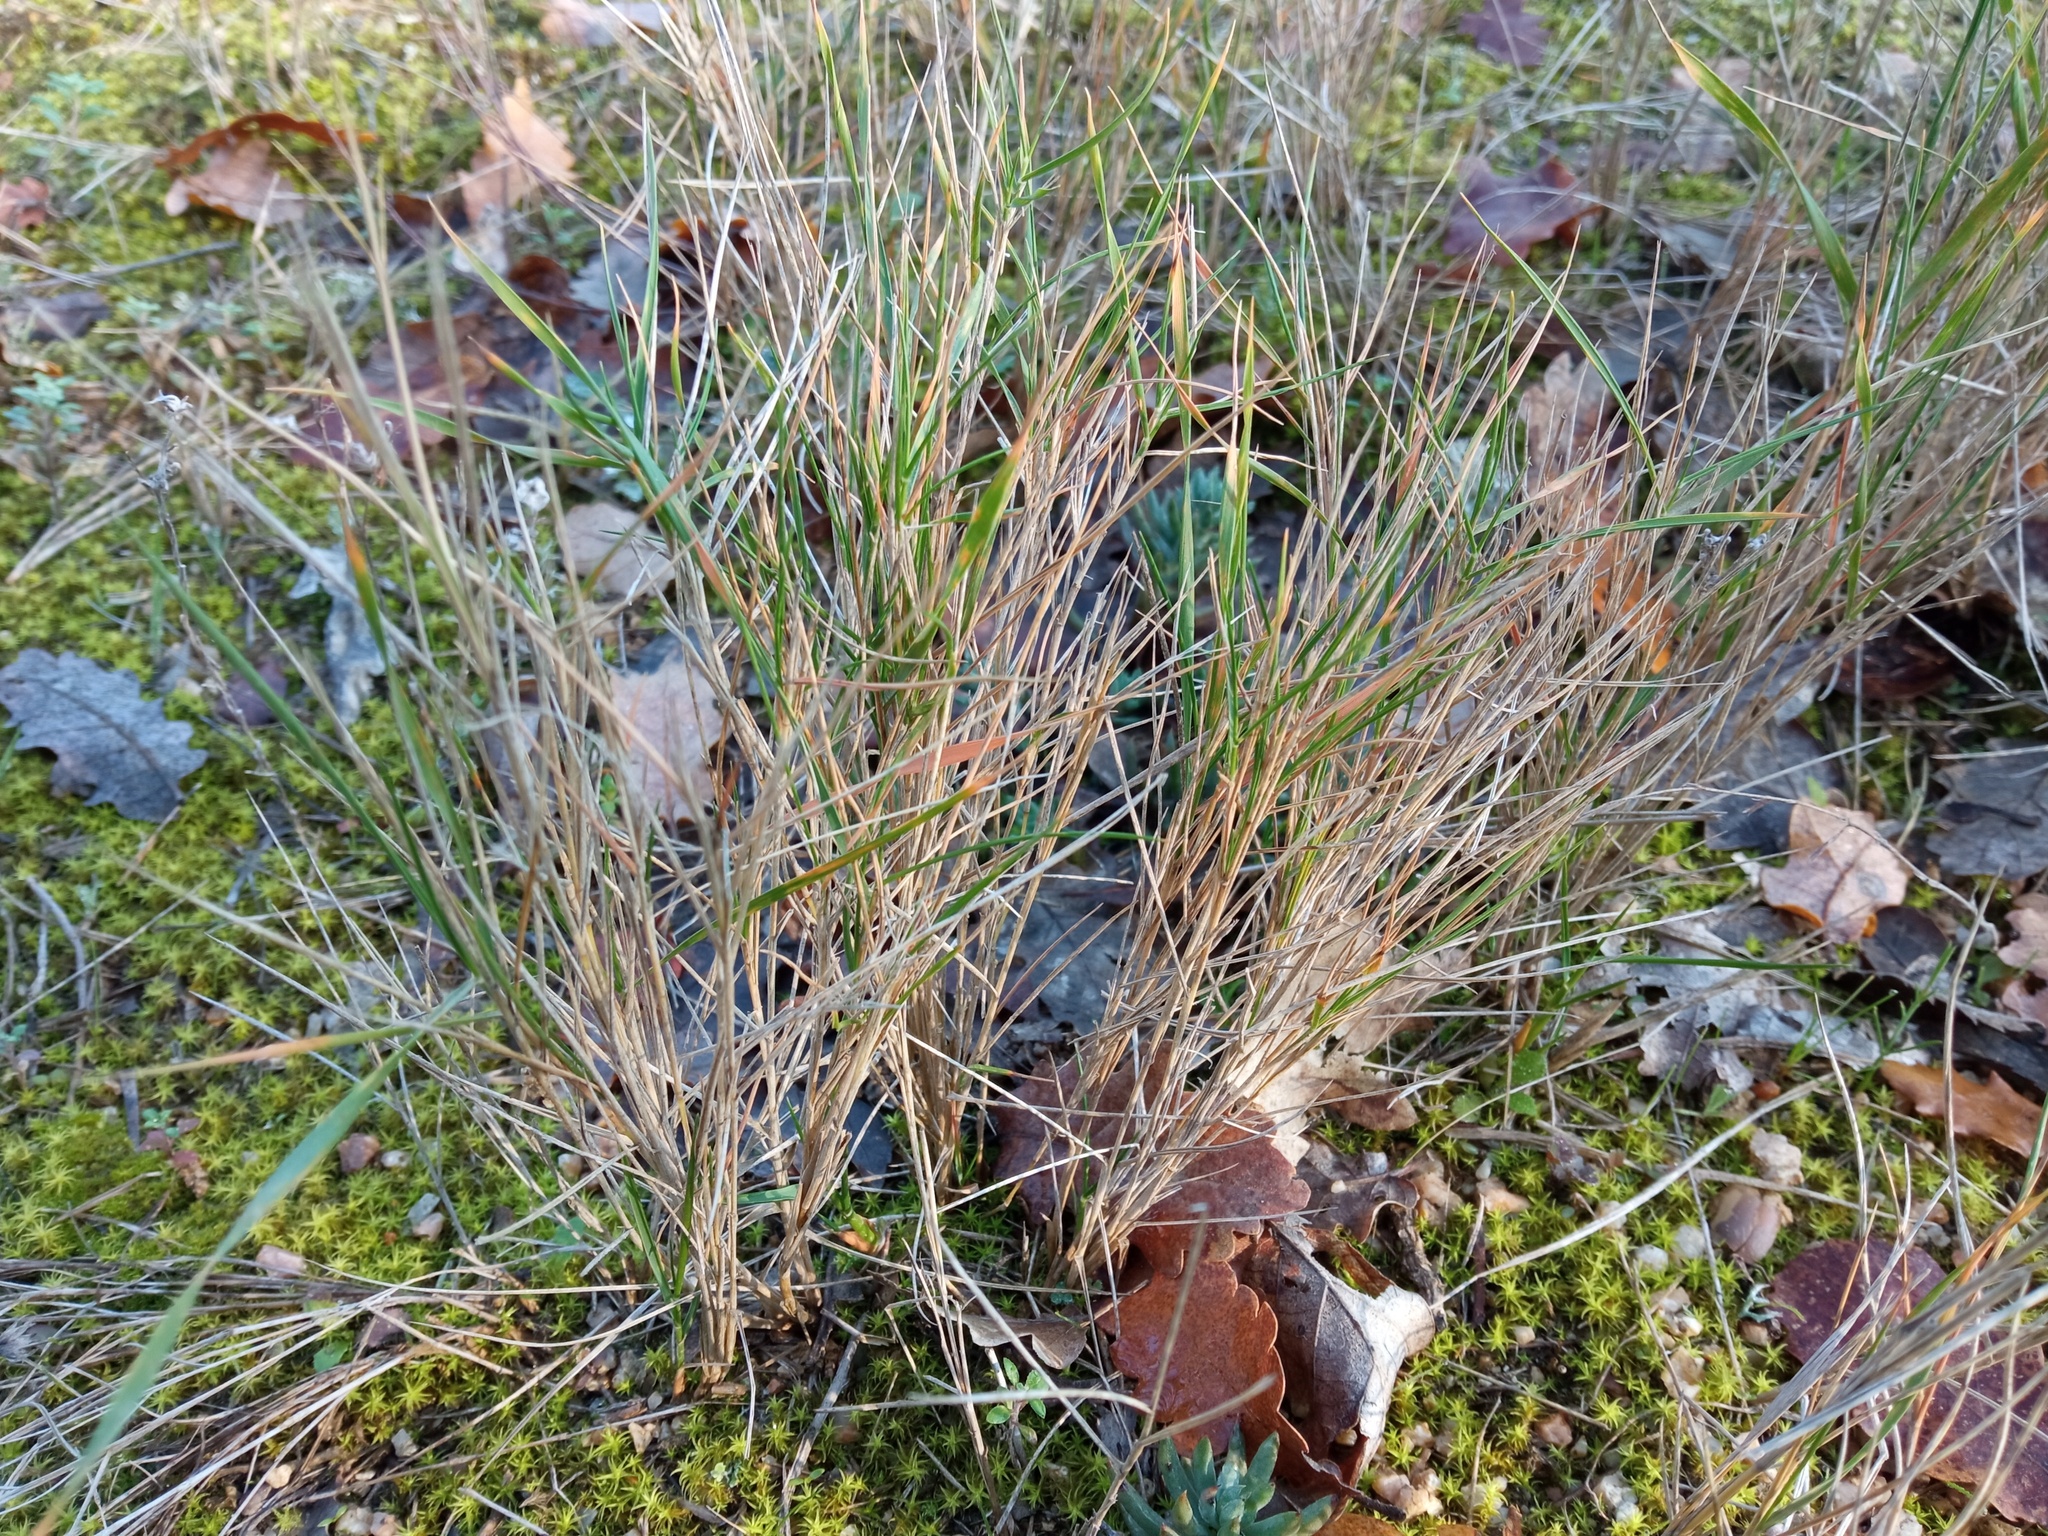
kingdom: Plantae
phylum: Tracheophyta
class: Liliopsida
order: Poales
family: Poaceae
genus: Brachypodium
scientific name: Brachypodium retusum
